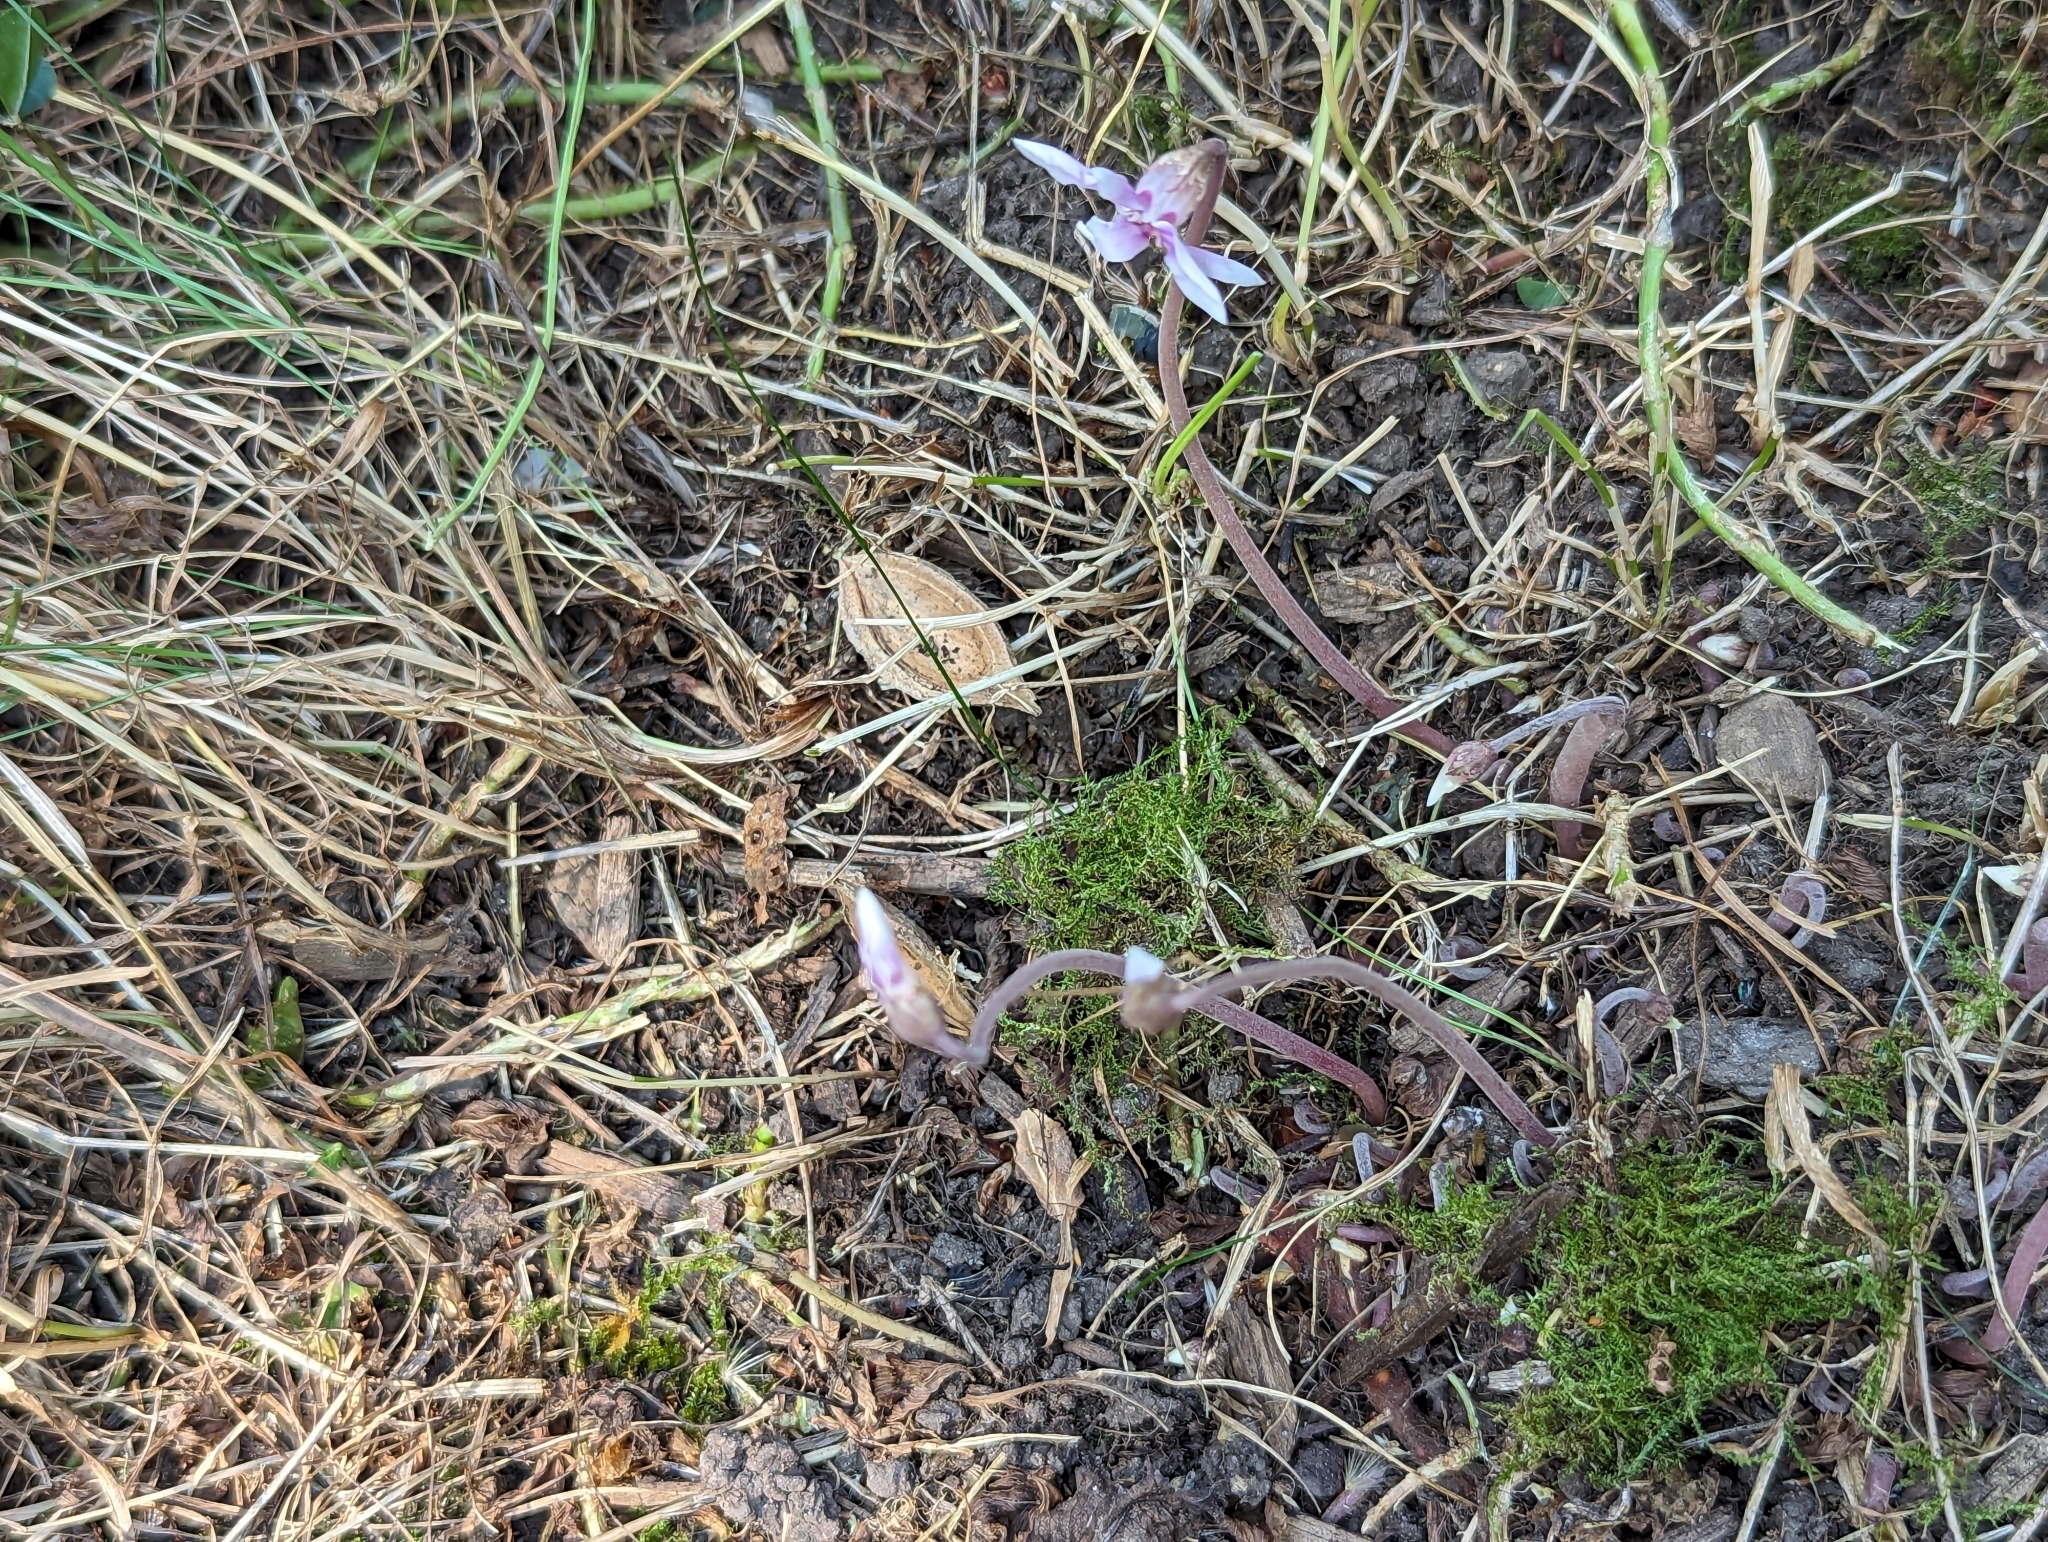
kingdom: Plantae
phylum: Tracheophyta
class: Magnoliopsida
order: Ericales
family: Primulaceae
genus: Cyclamen
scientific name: Cyclamen hederifolium
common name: Sowbread
